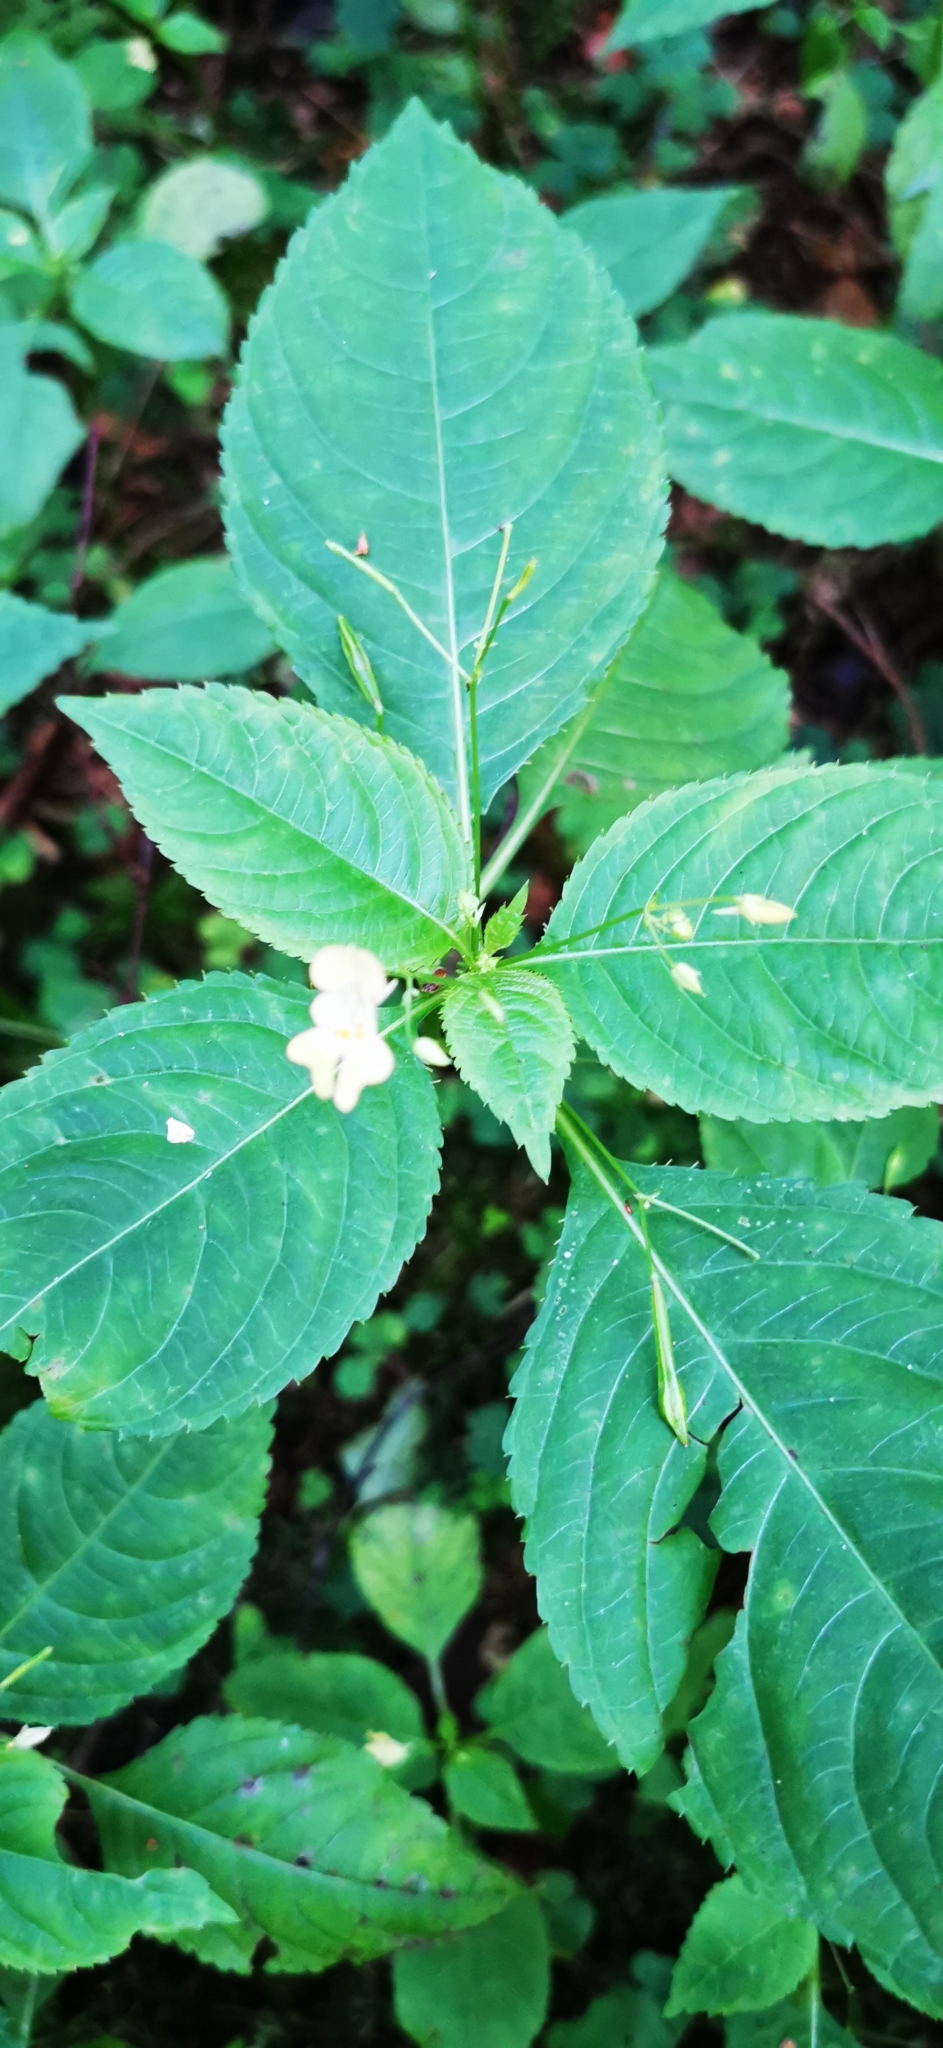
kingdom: Plantae
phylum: Tracheophyta
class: Magnoliopsida
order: Ericales
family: Balsaminaceae
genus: Impatiens
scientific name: Impatiens parviflora
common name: Small balsam
